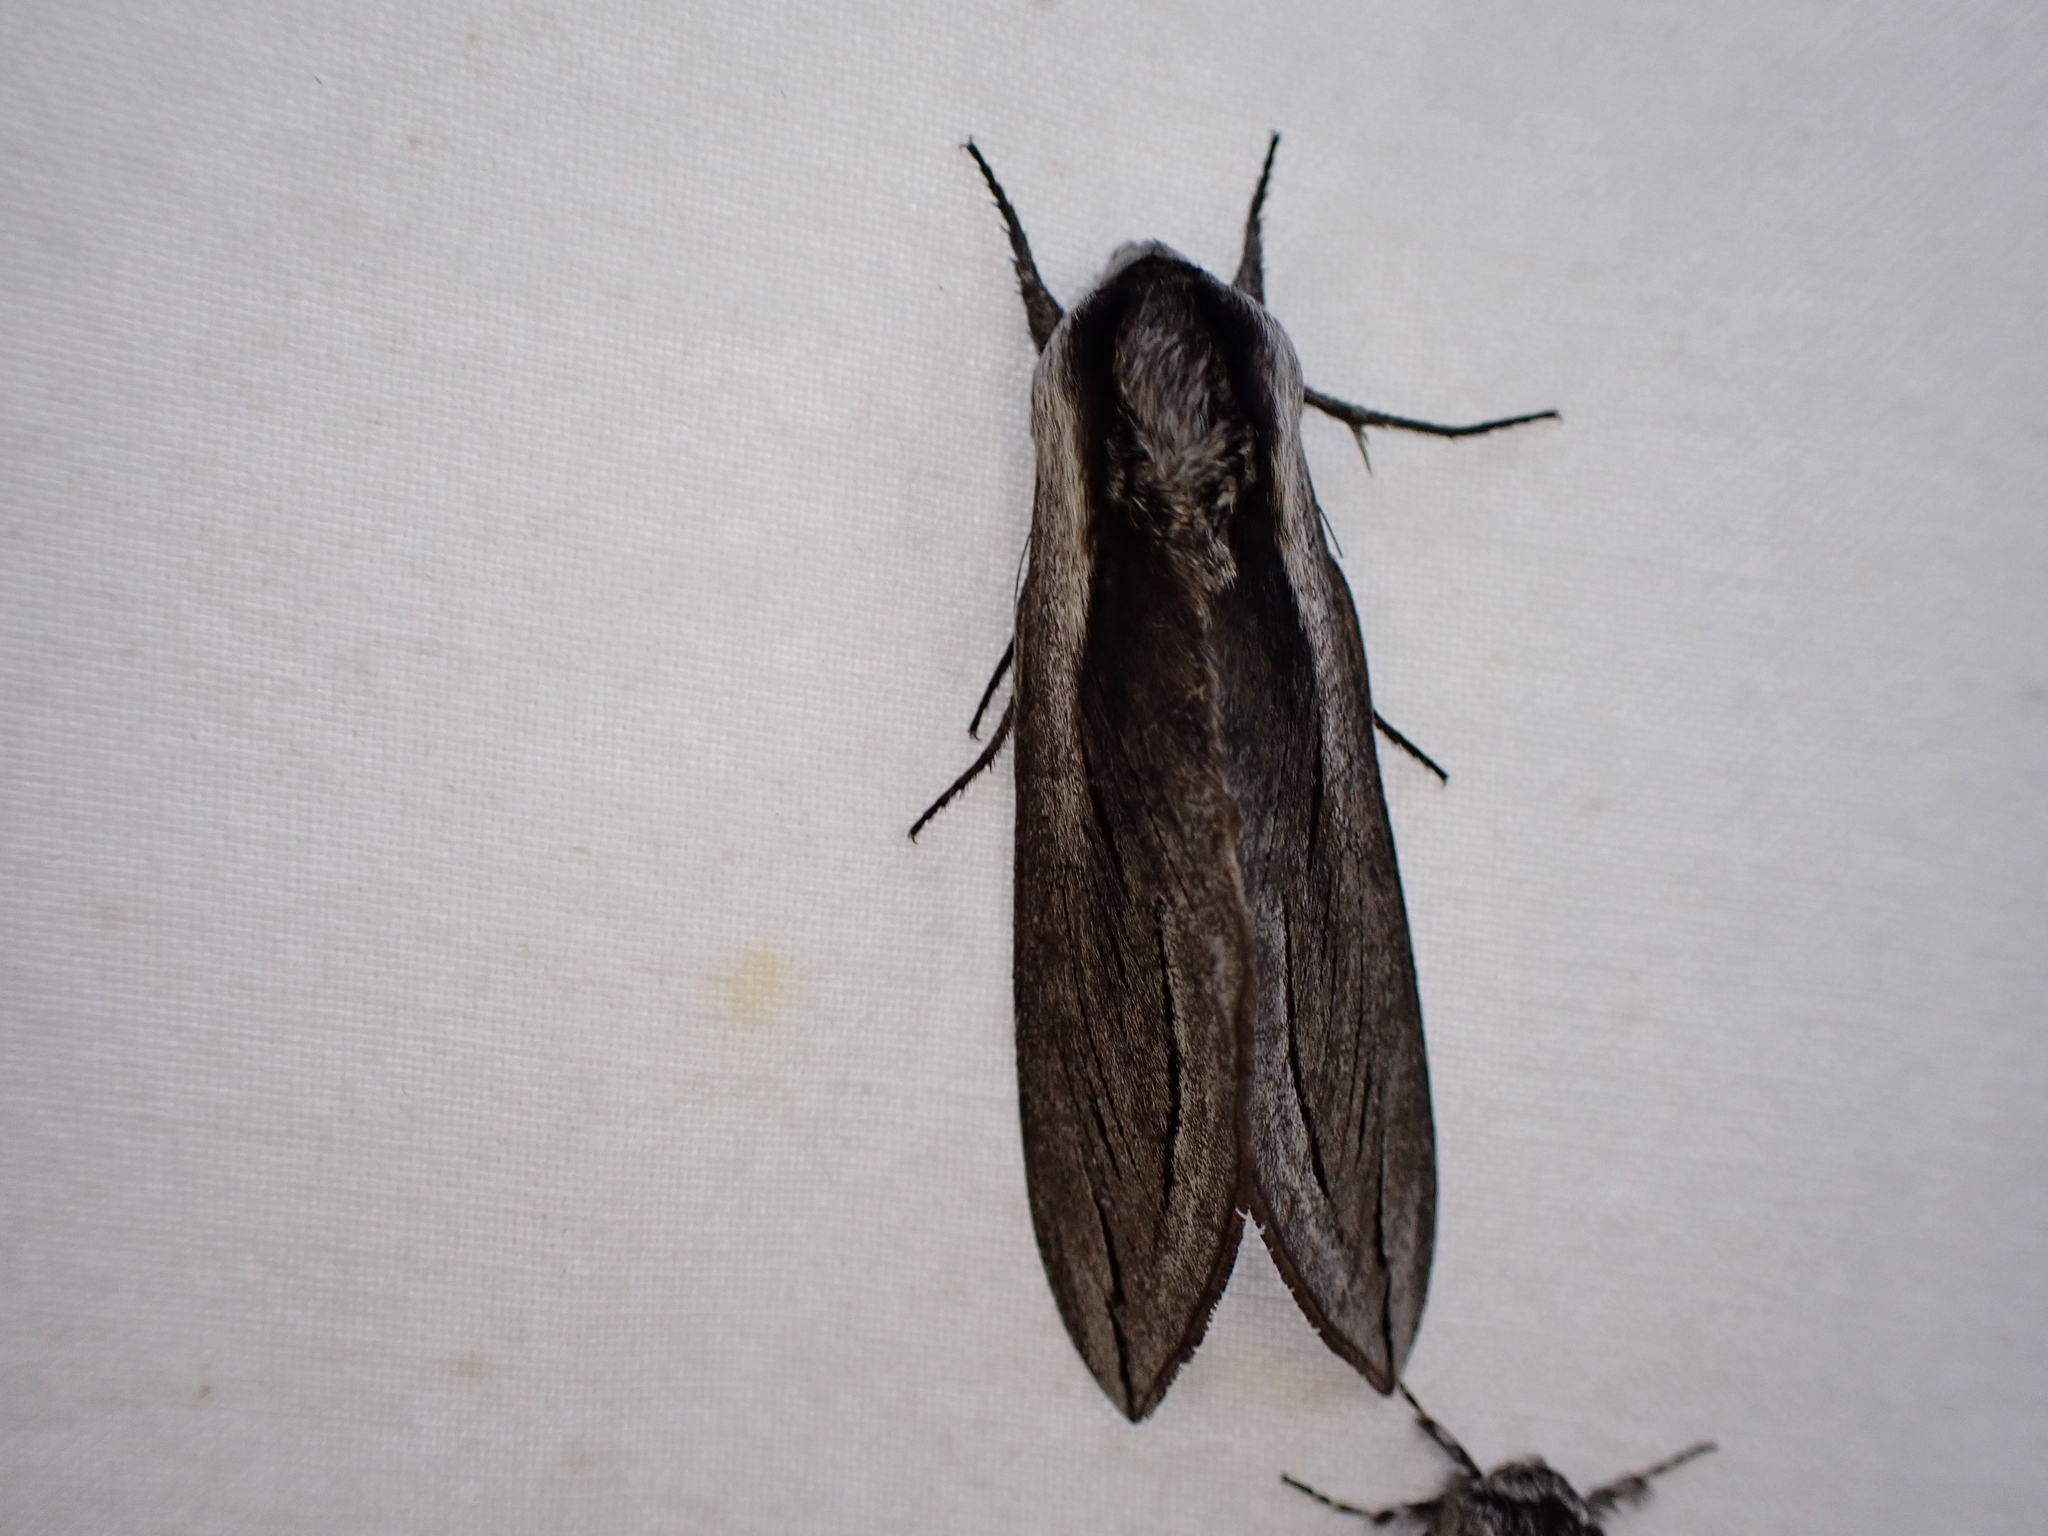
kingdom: Animalia
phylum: Arthropoda
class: Insecta
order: Lepidoptera
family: Sphingidae
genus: Sphinx
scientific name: Sphinx vashti
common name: Snowberry sphinx
